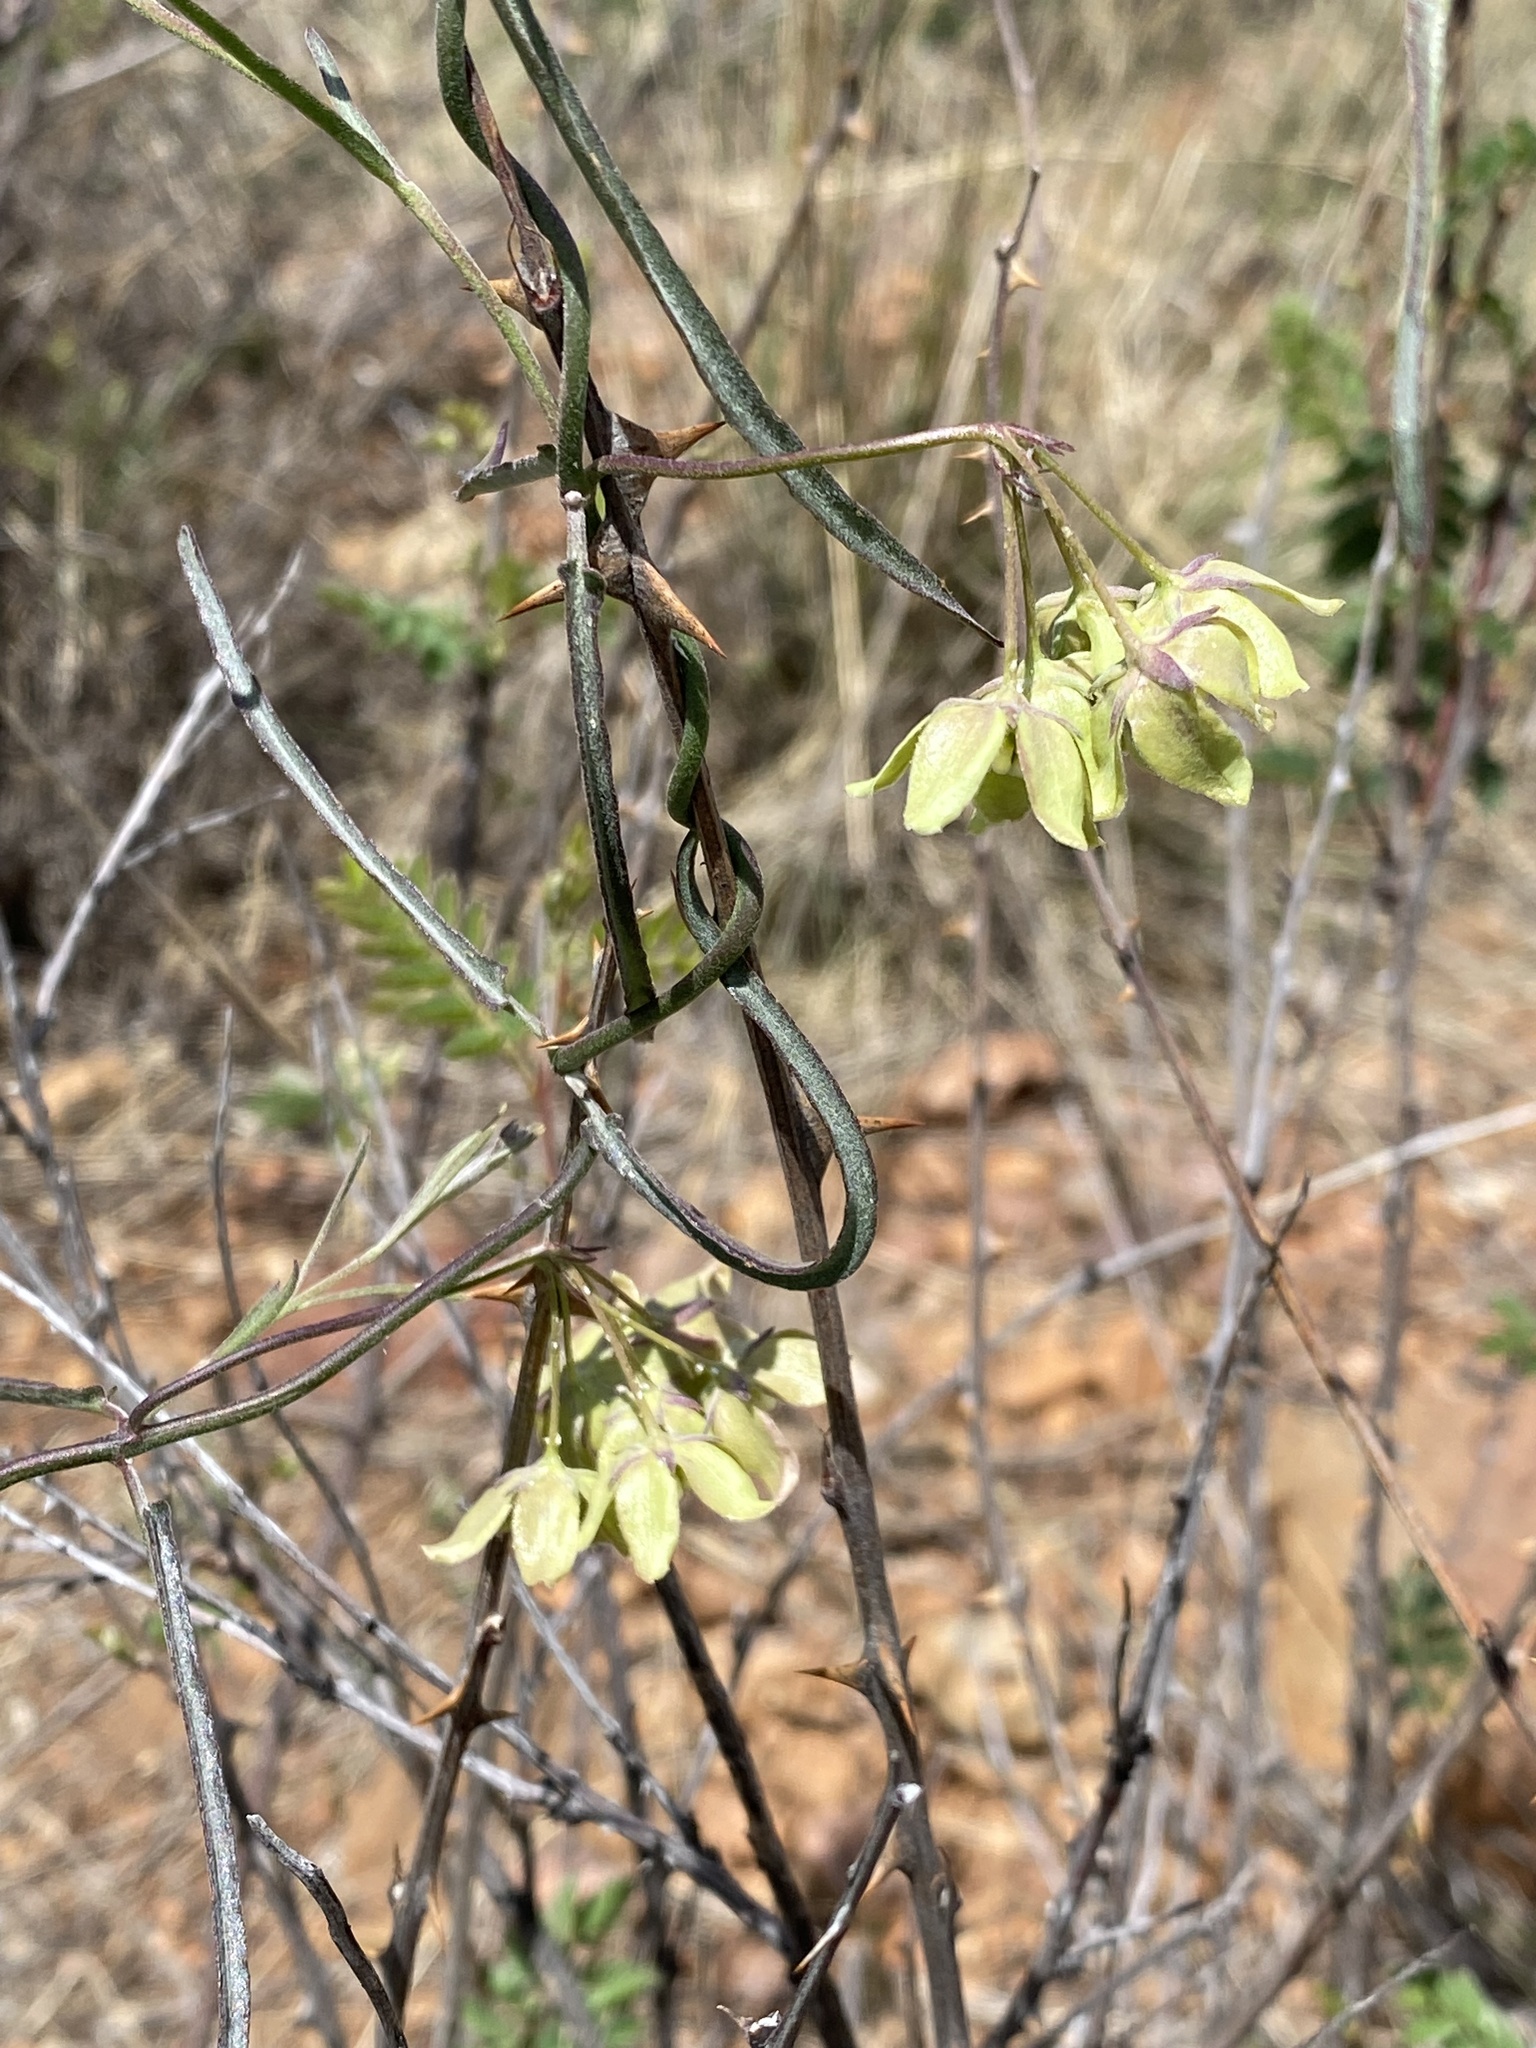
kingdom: Plantae
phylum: Tracheophyta
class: Magnoliopsida
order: Gentianales
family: Apocynaceae
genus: Funastrum
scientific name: Funastrum crispum
